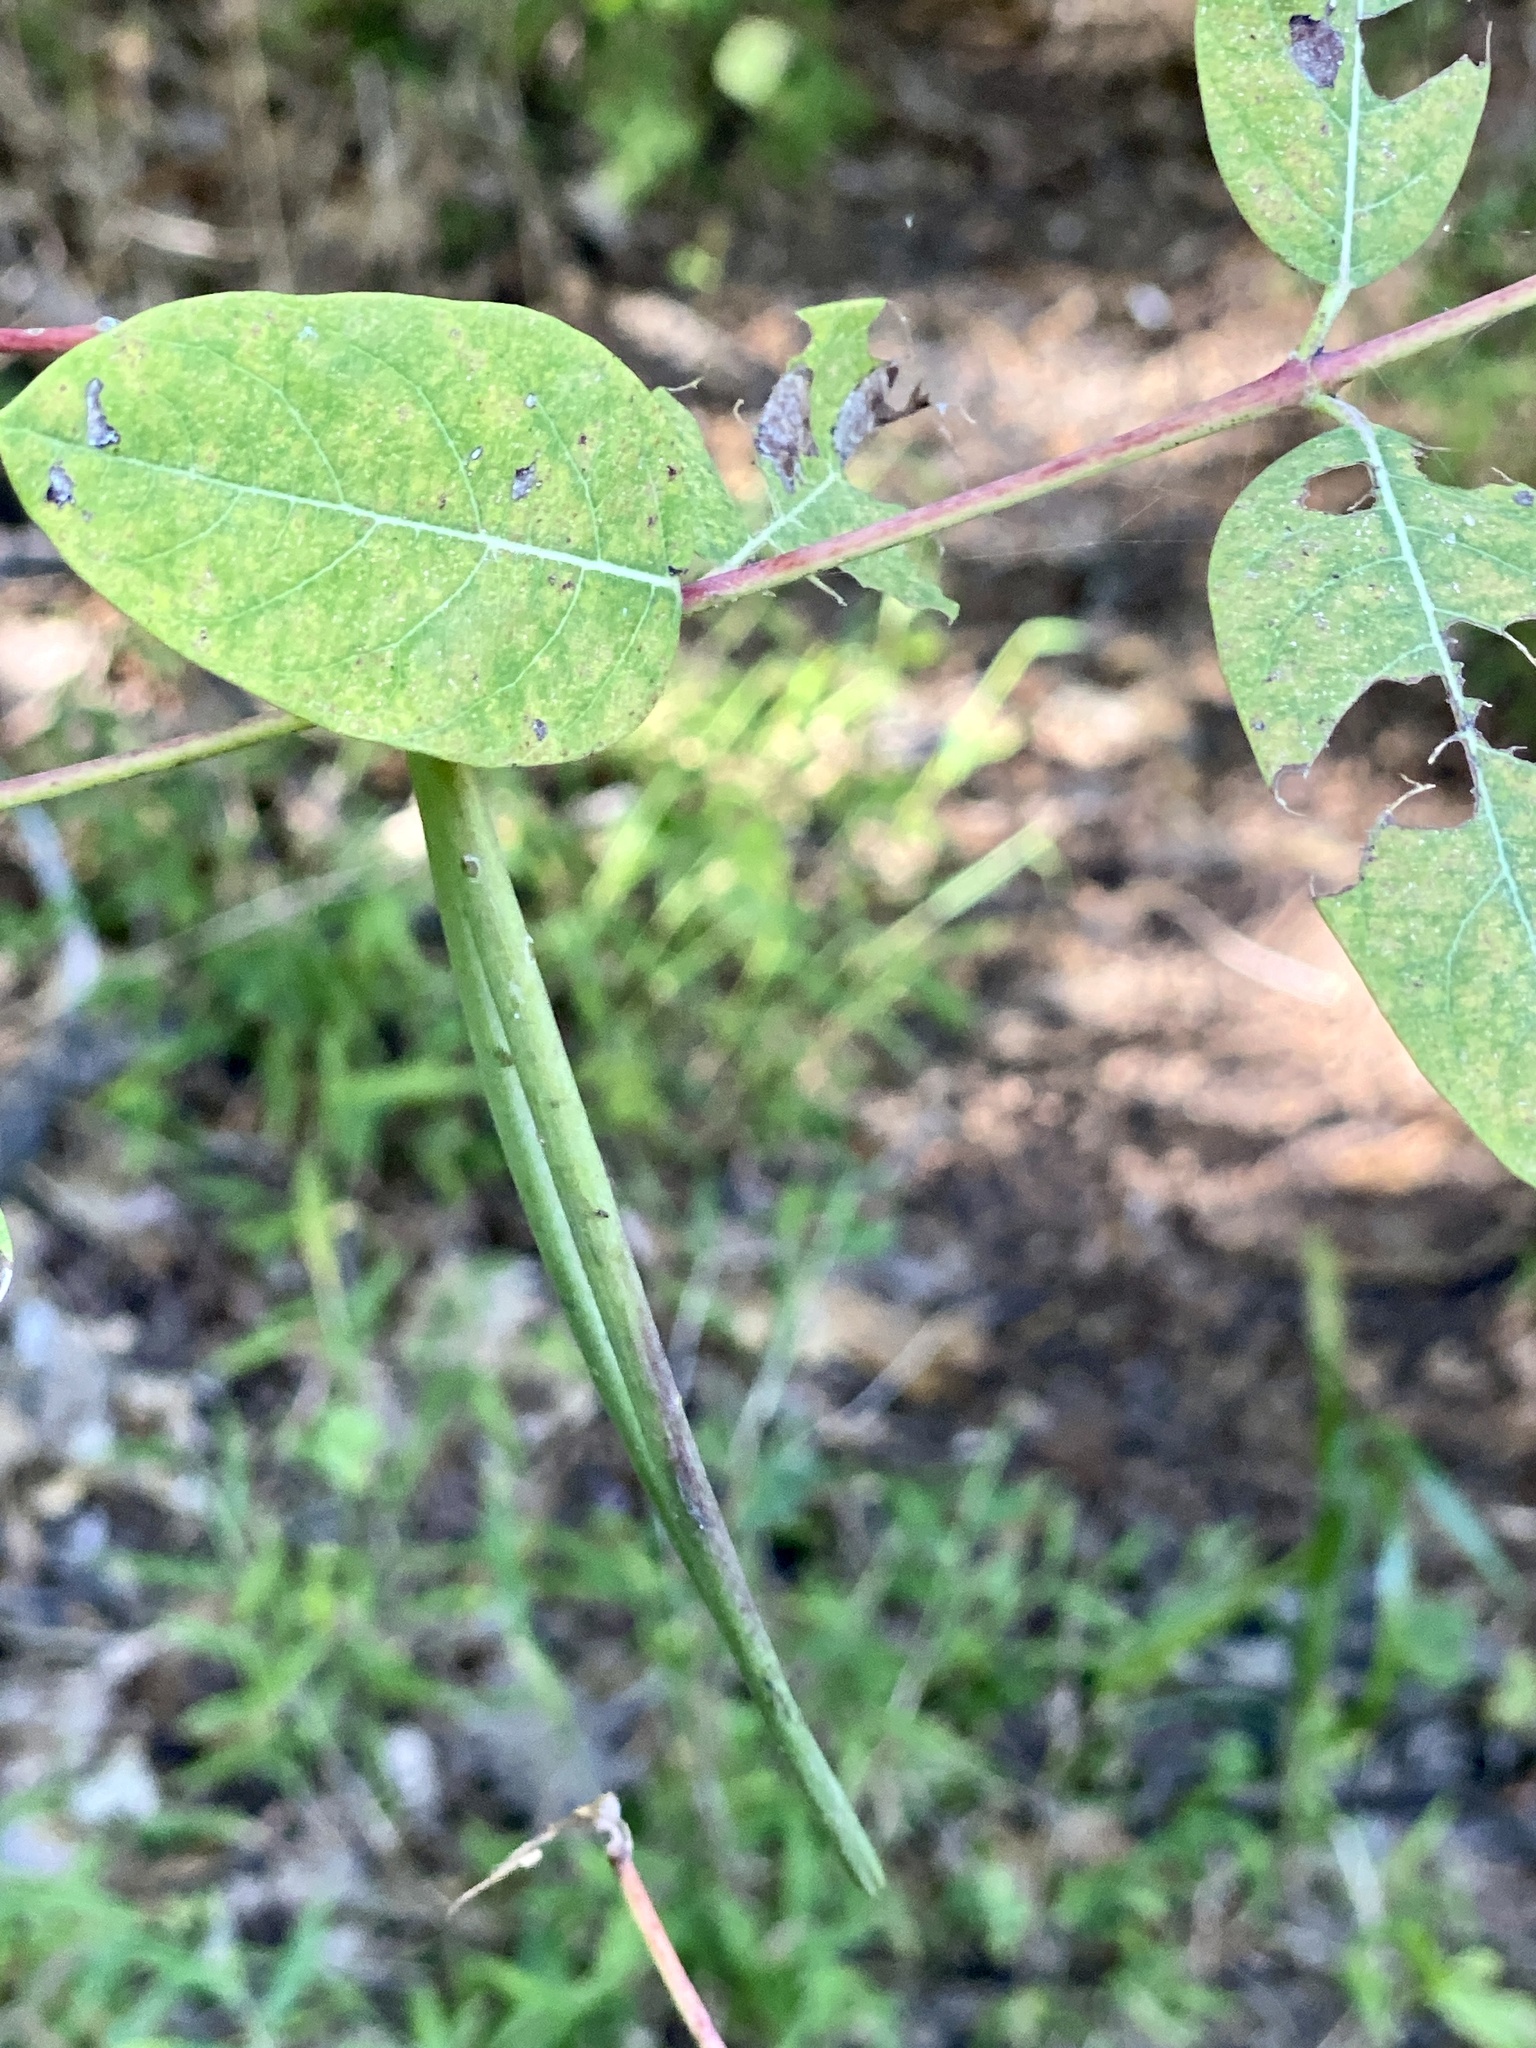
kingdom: Plantae
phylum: Tracheophyta
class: Magnoliopsida
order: Gentianales
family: Apocynaceae
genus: Apocynum
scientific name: Apocynum cannabinum
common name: Hemp dogbane
